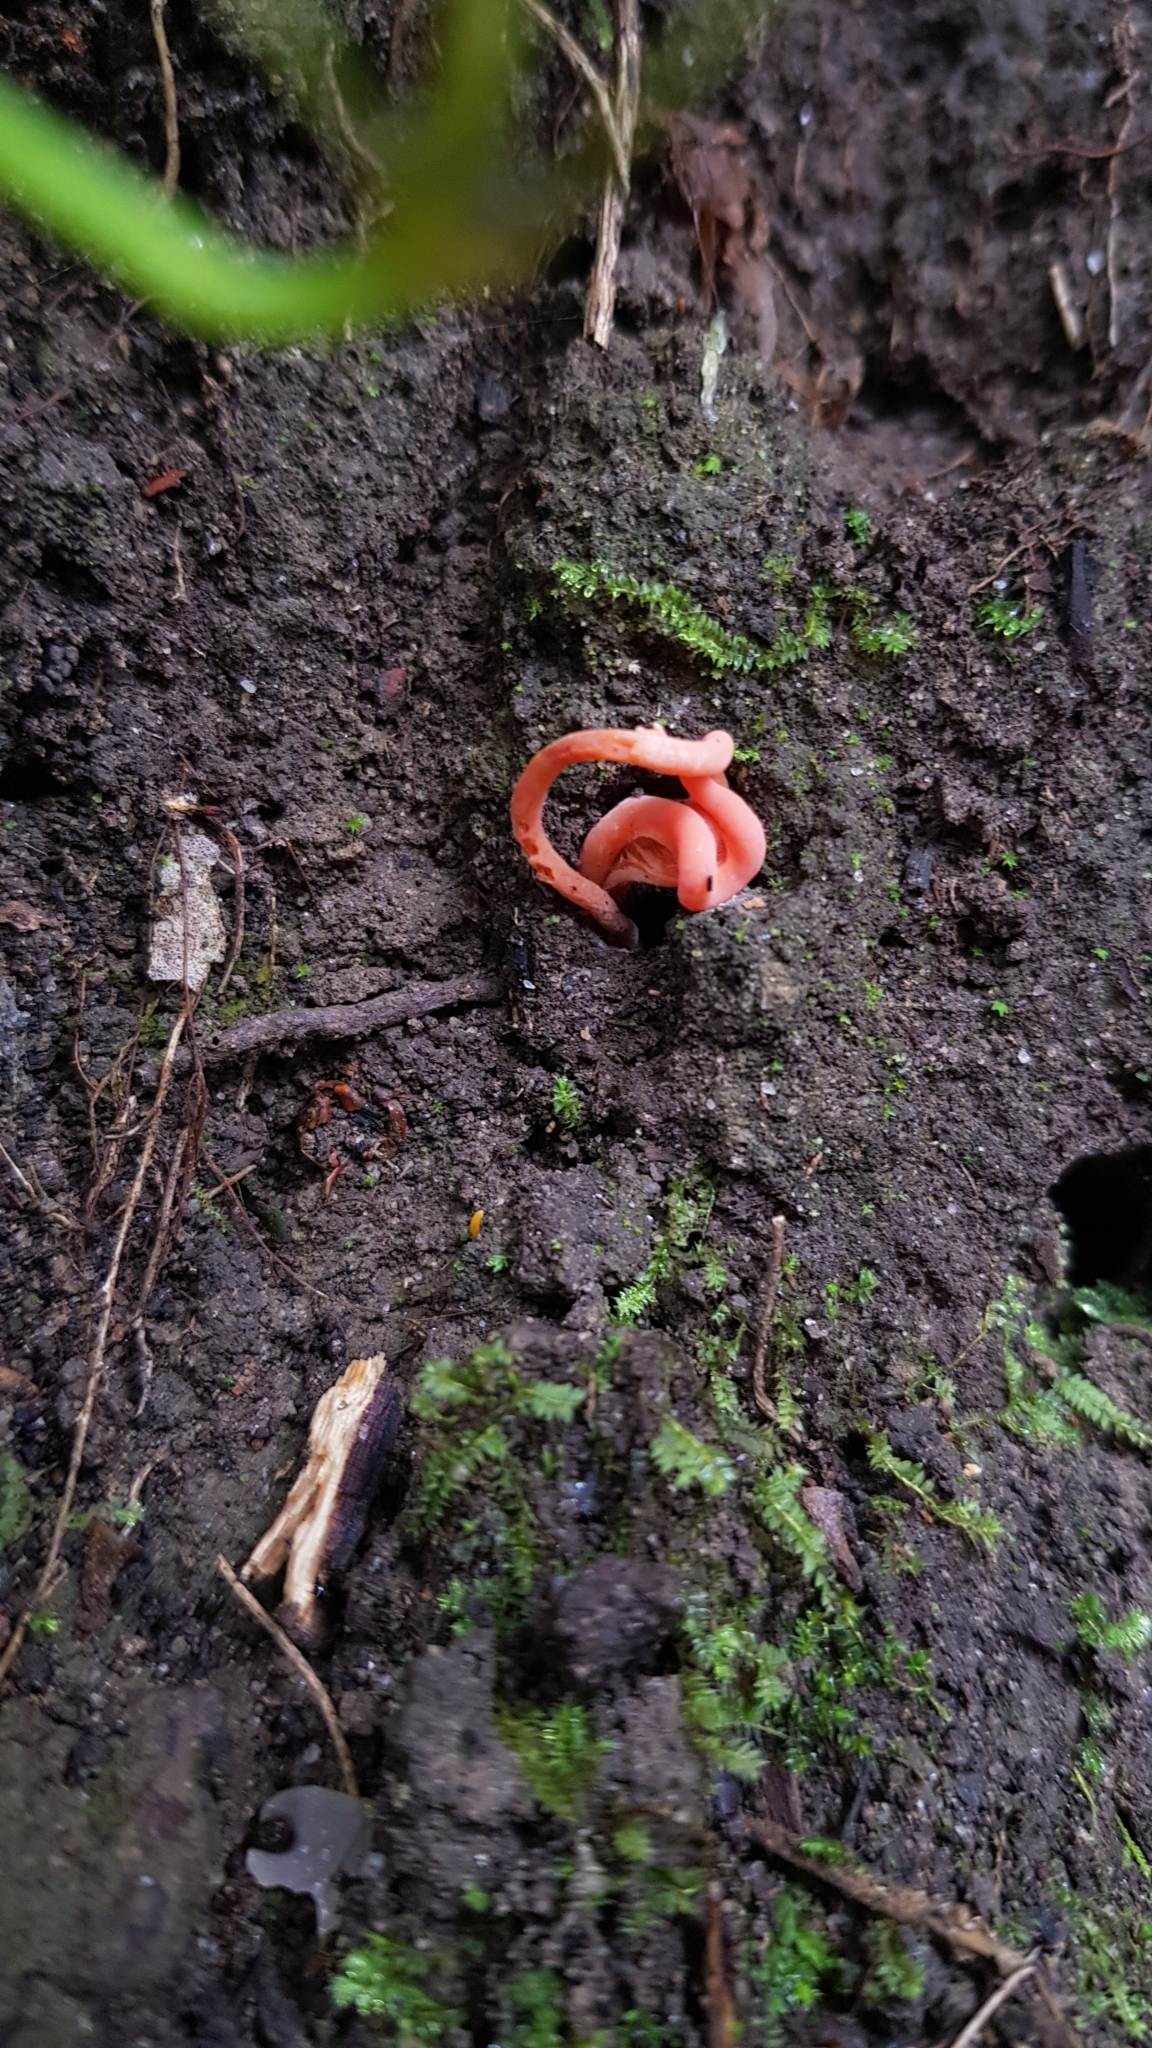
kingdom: Fungi
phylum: Basidiomycota
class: Agaricomycetes
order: Agaricales
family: Clavariaceae
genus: Clavulinopsis
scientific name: Clavulinopsis corallinorosacea
